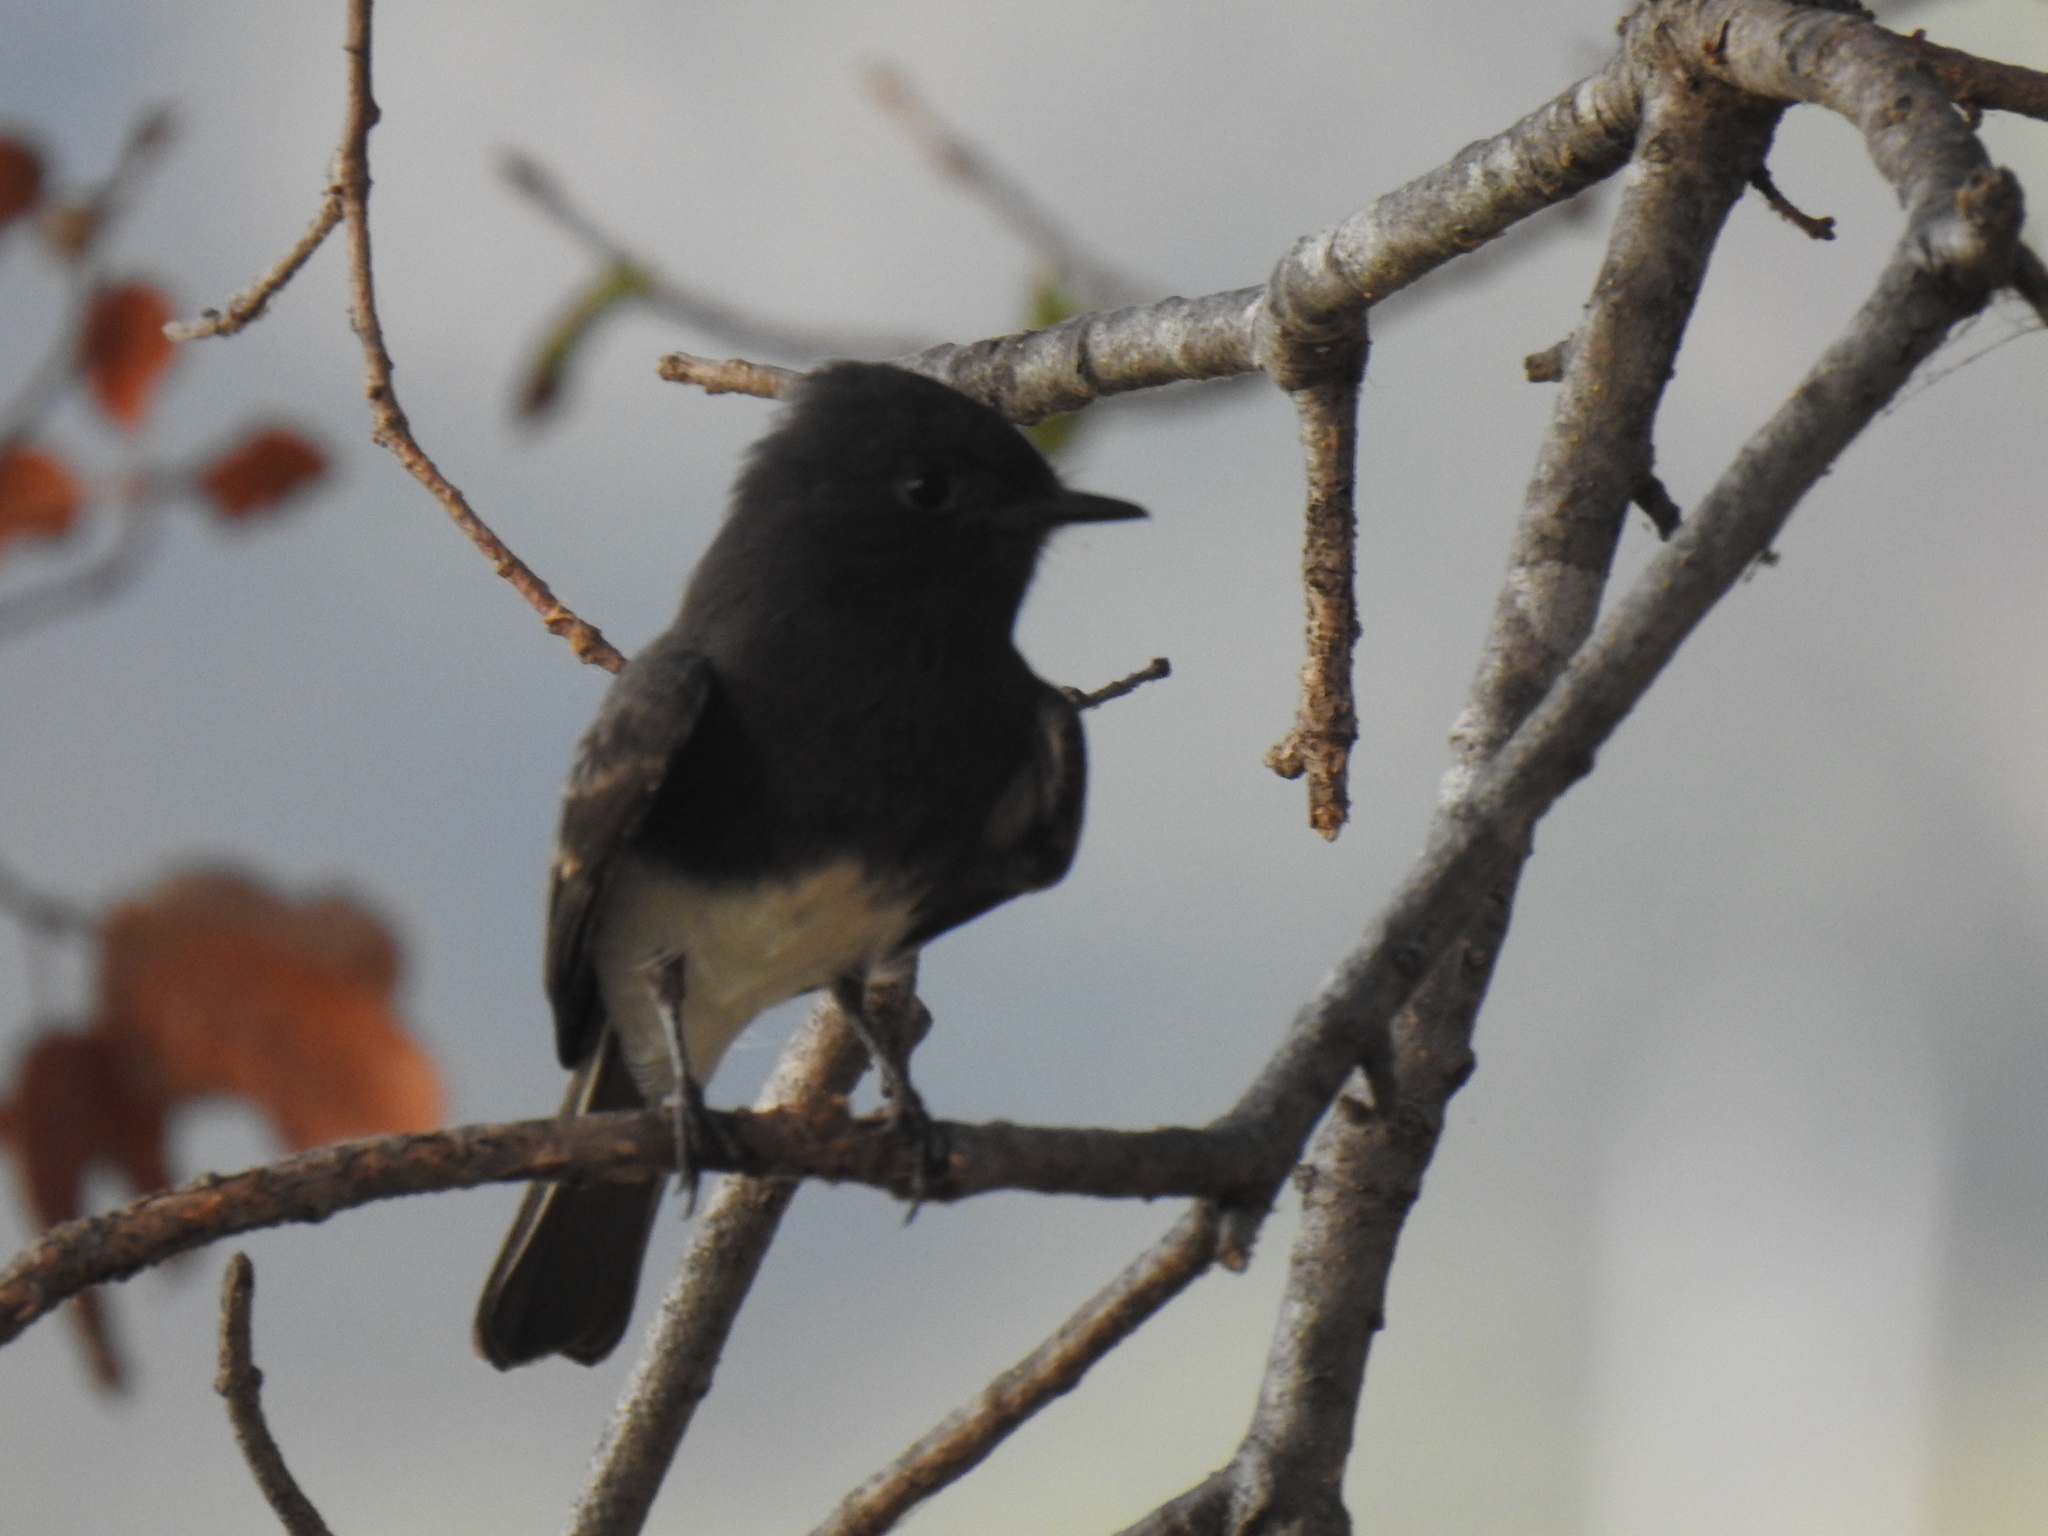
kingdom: Animalia
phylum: Chordata
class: Aves
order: Passeriformes
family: Tyrannidae
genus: Sayornis
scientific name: Sayornis nigricans
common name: Black phoebe
